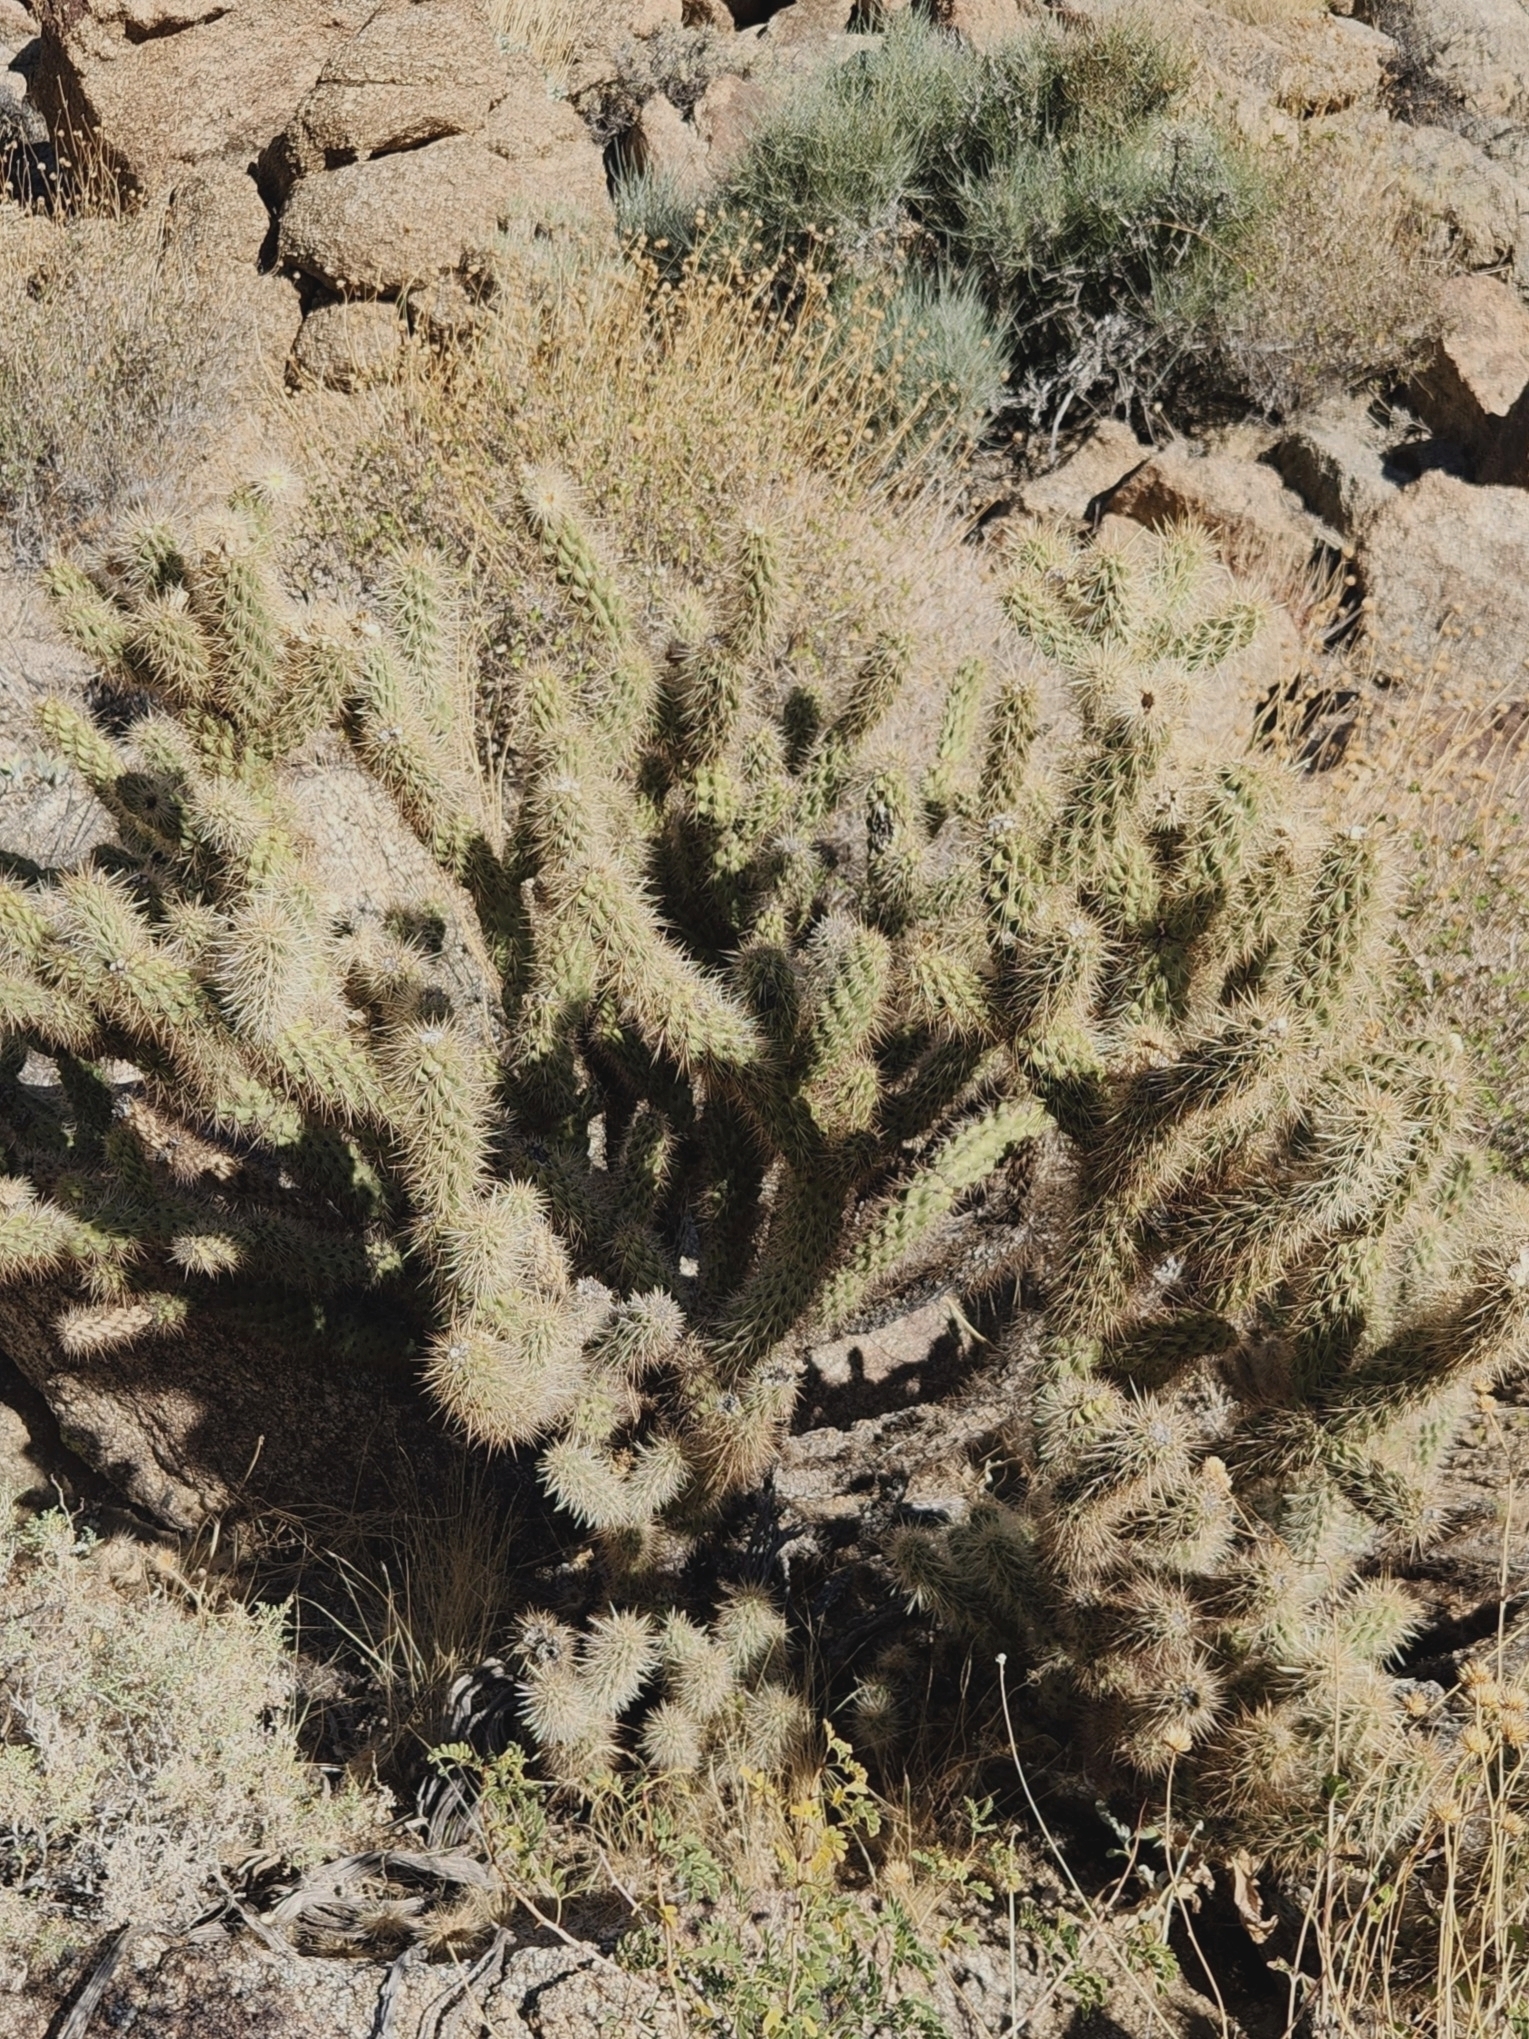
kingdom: Plantae
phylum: Tracheophyta
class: Magnoliopsida
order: Caryophyllales
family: Cactaceae
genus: Cylindropuntia
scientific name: Cylindropuntia ganderi
